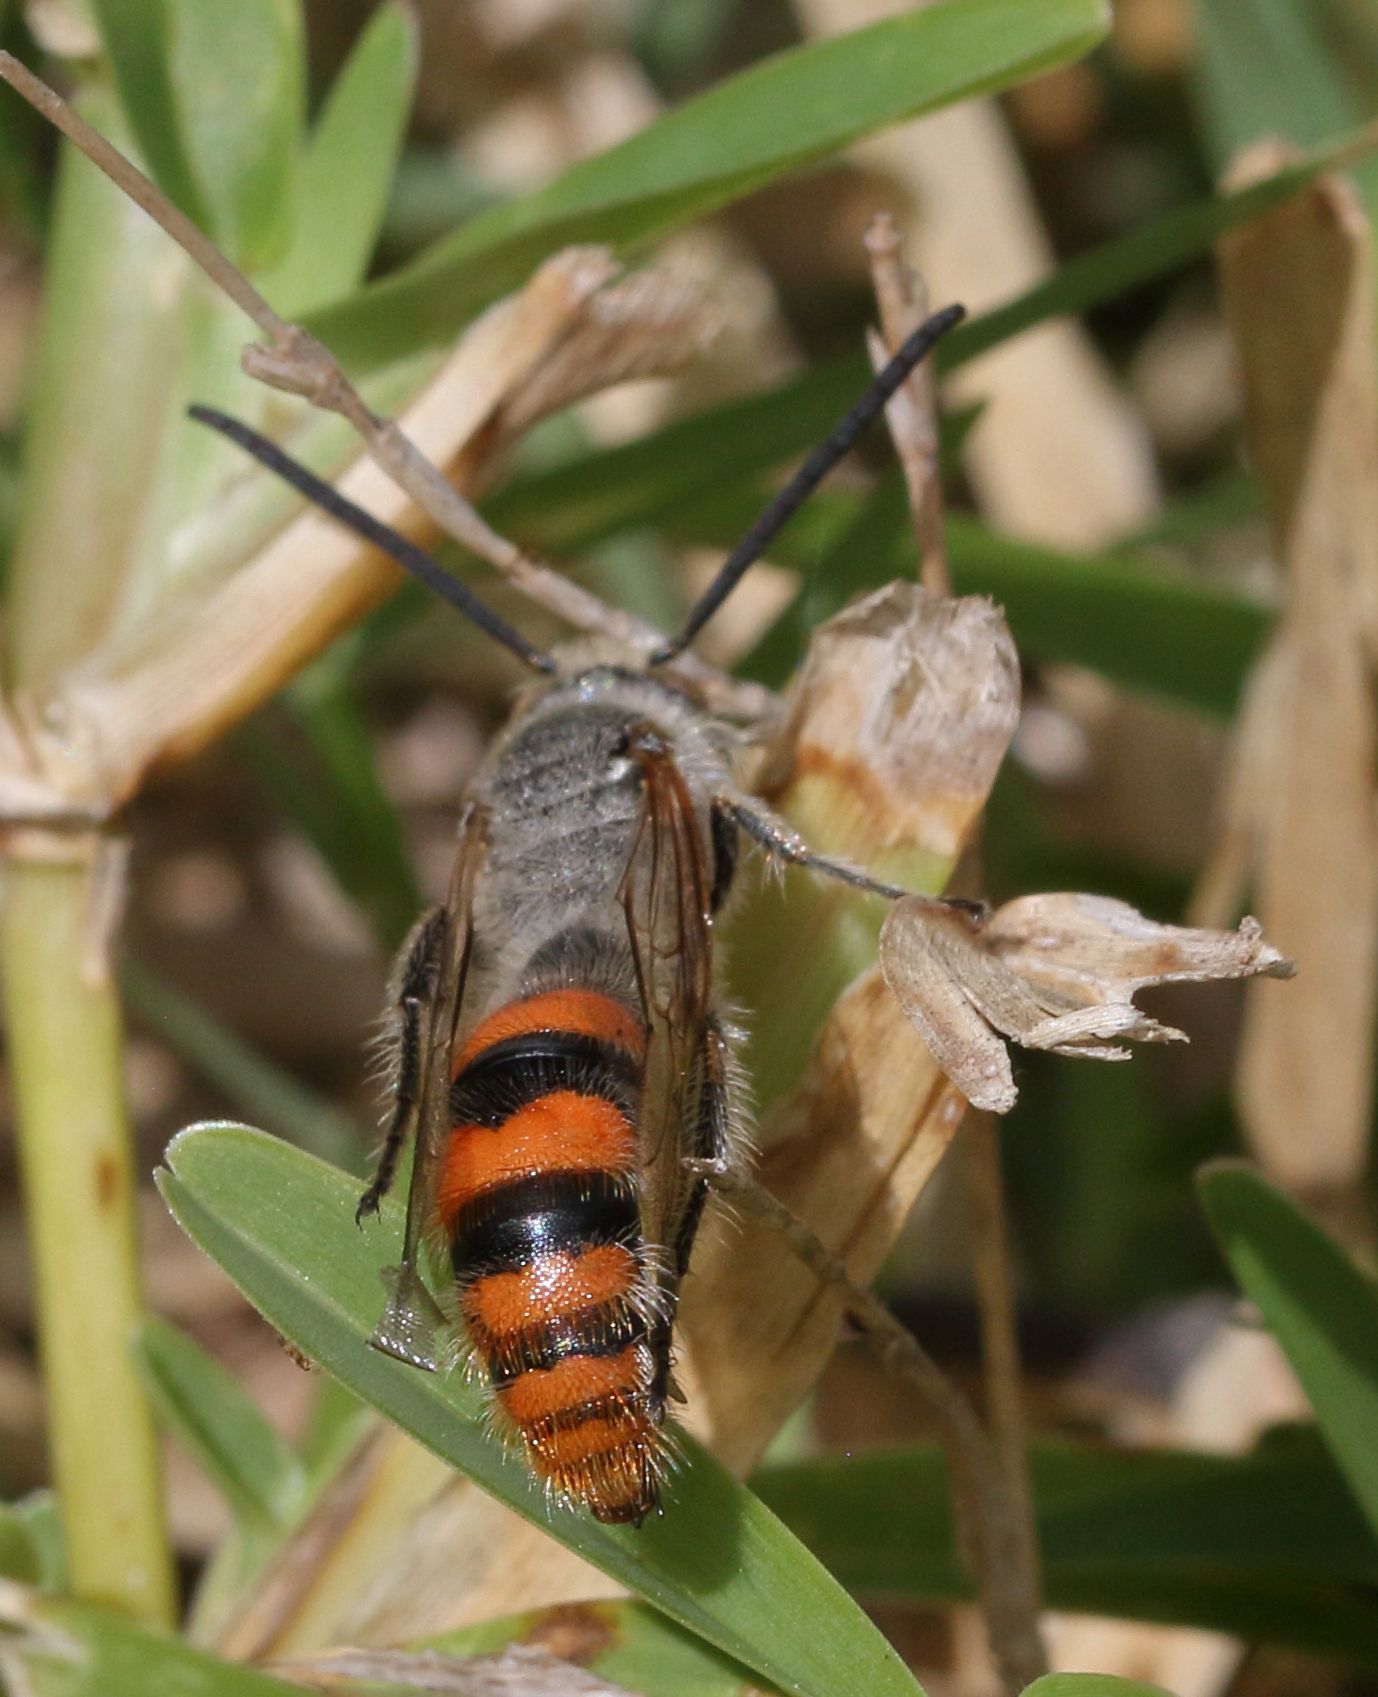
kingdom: Animalia
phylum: Arthropoda
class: Insecta
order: Hymenoptera
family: Scoliidae
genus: Campsomeriella
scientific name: Campsomeriella caelebs
